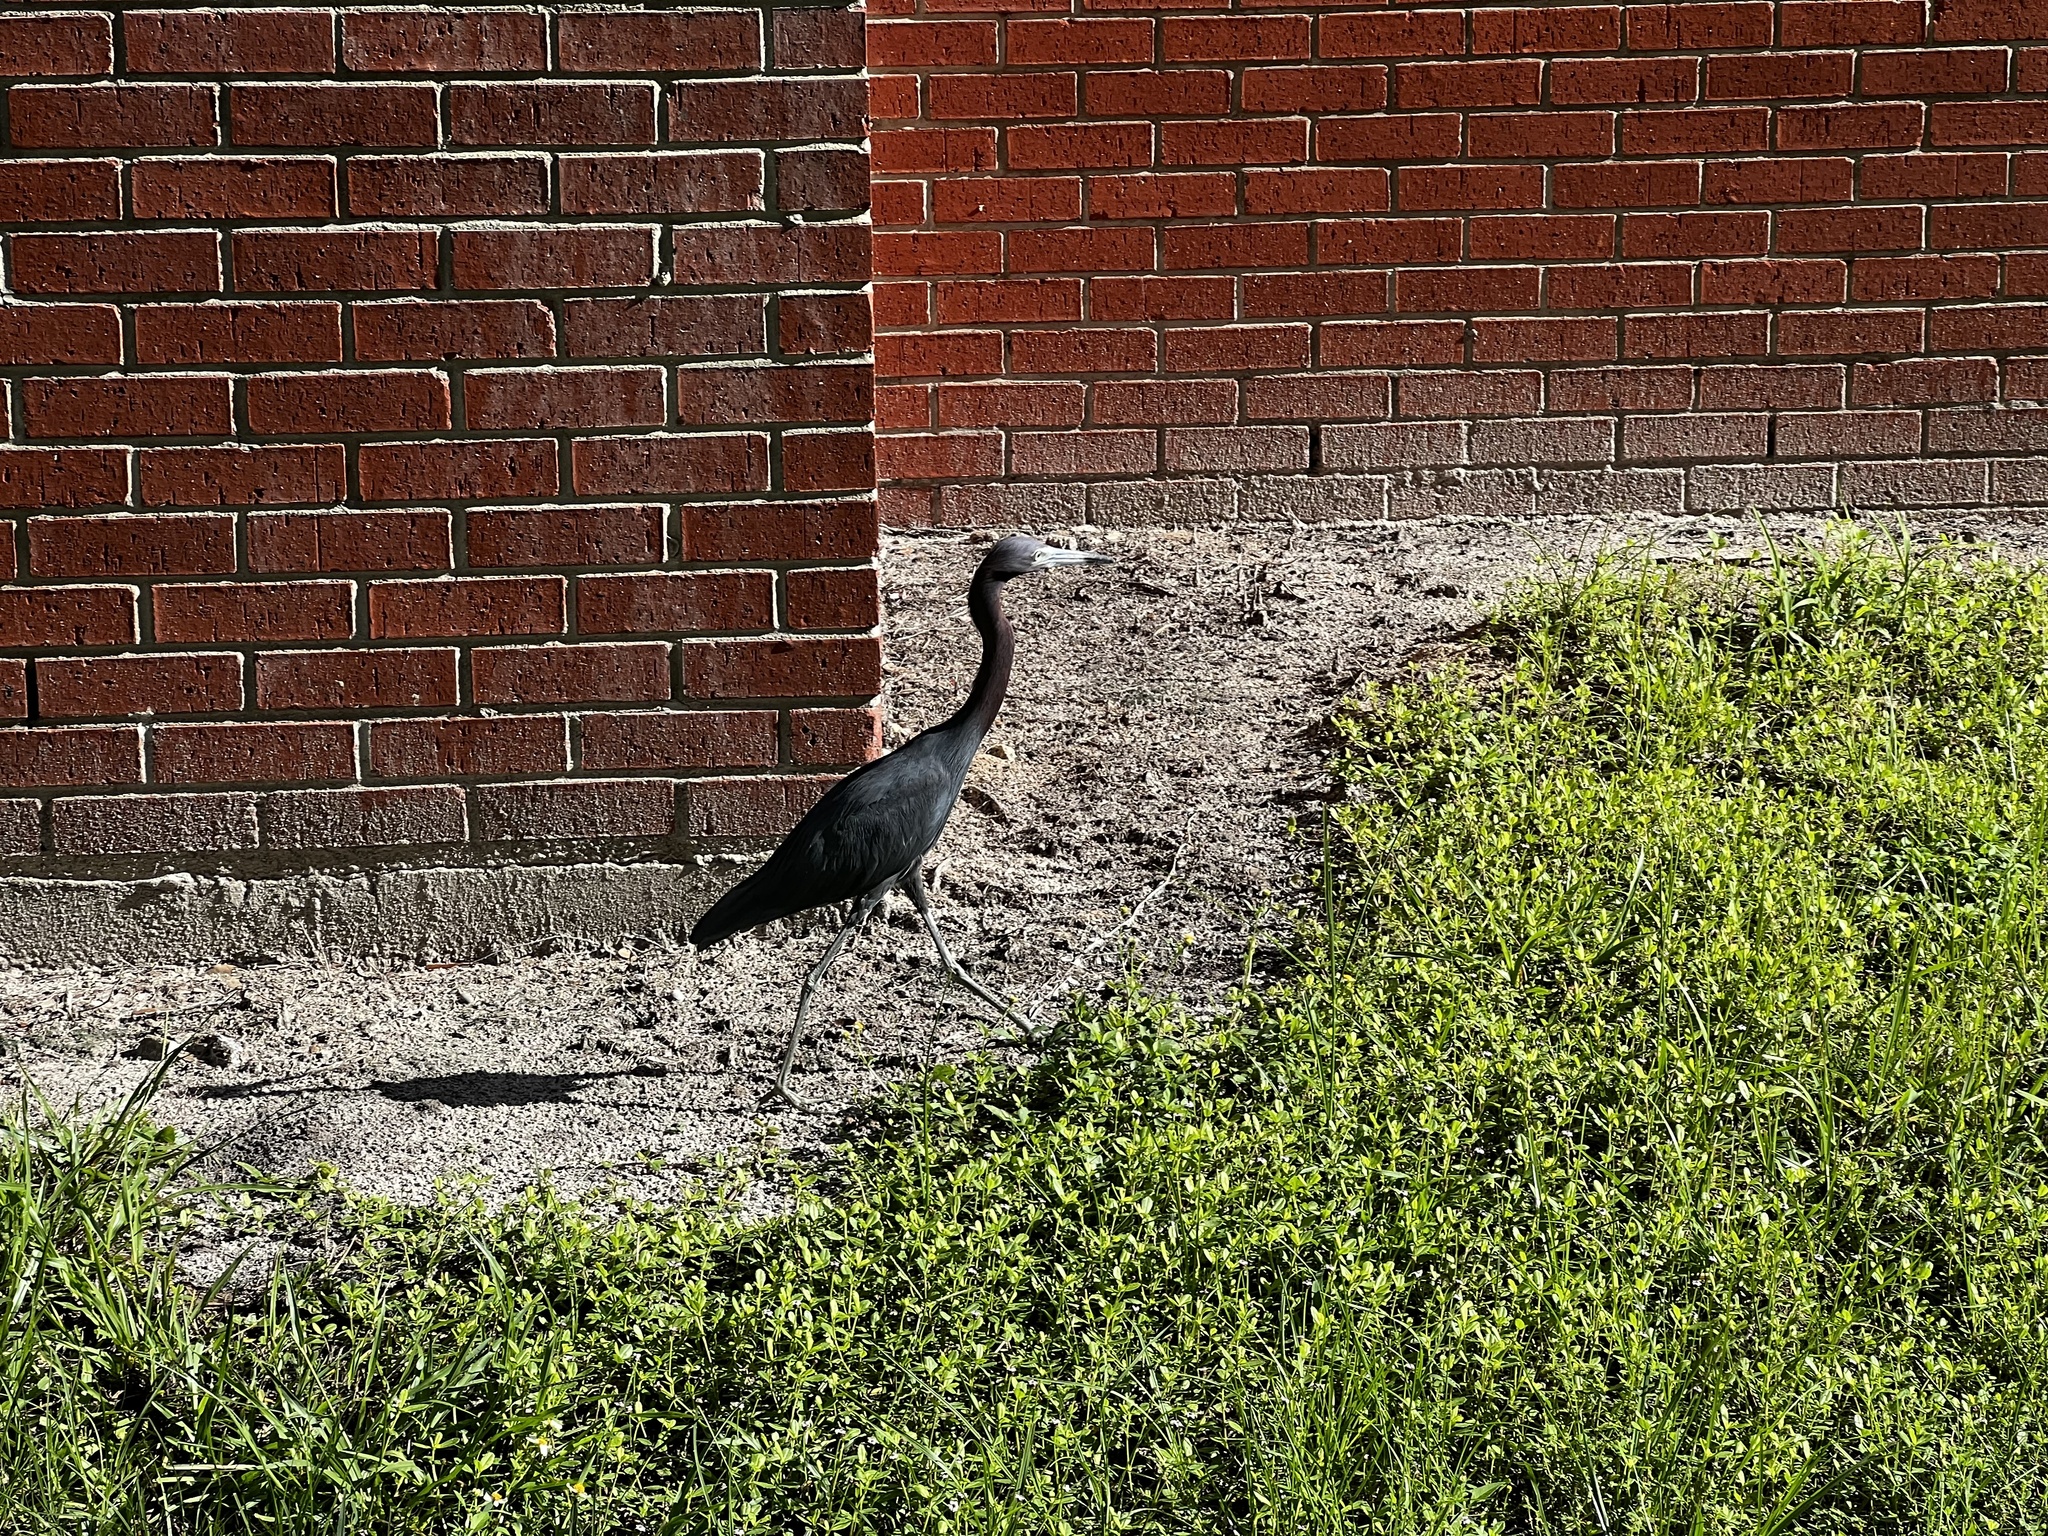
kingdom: Animalia
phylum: Chordata
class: Aves
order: Pelecaniformes
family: Ardeidae
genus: Egretta
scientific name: Egretta caerulea
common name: Little blue heron
